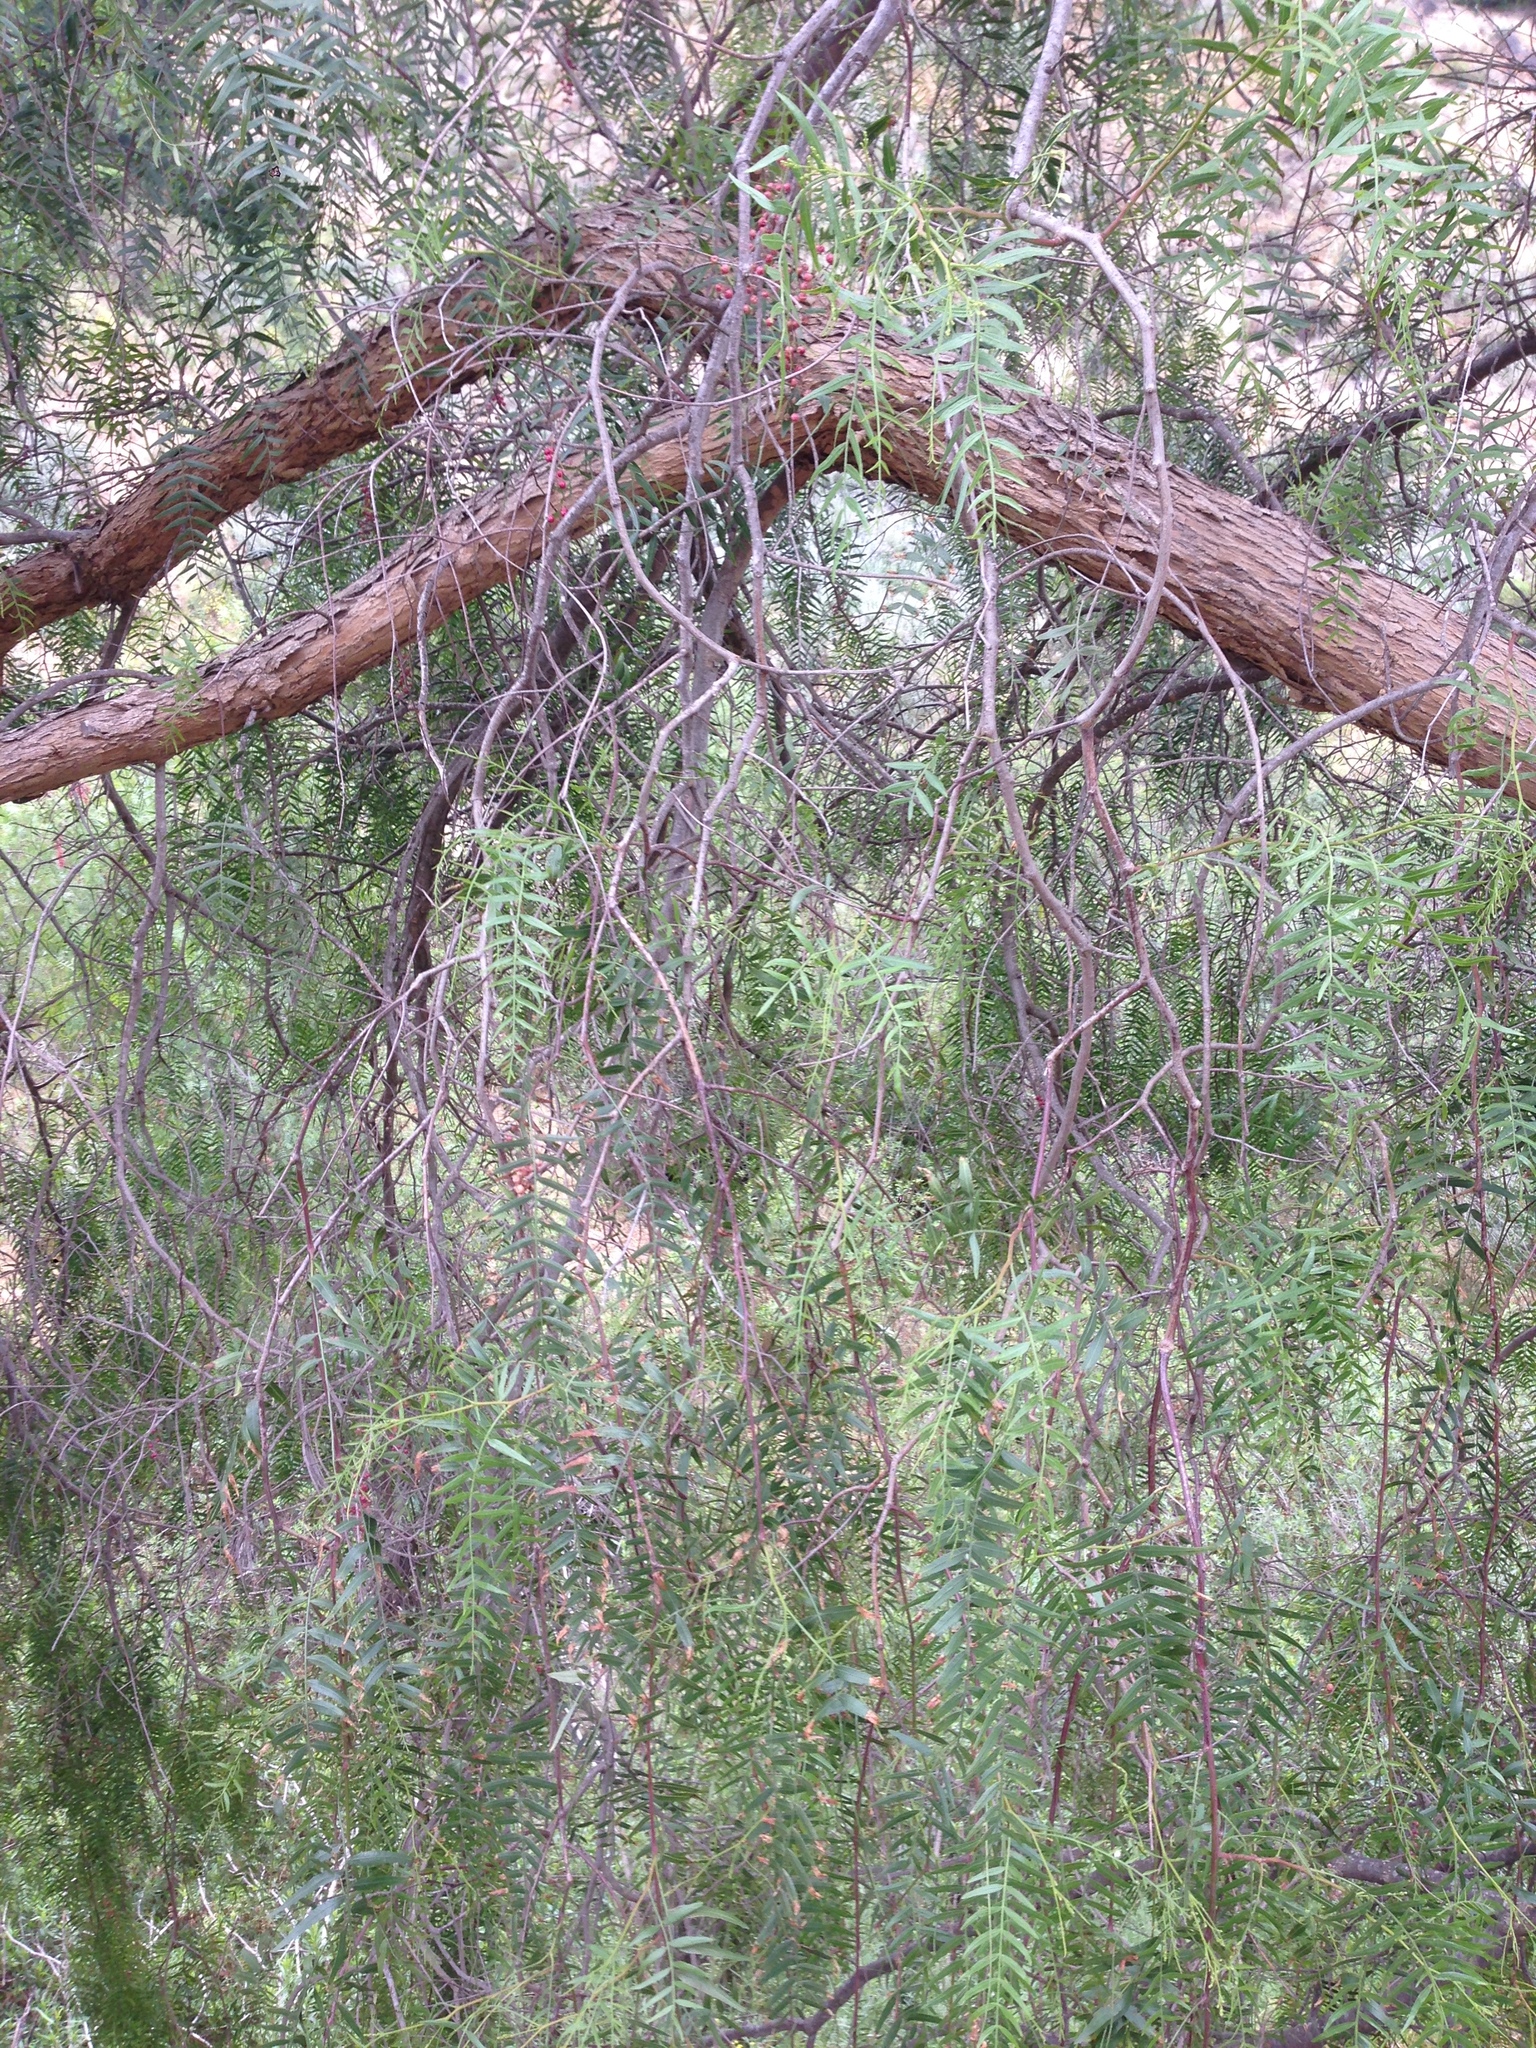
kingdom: Plantae
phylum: Tracheophyta
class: Magnoliopsida
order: Sapindales
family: Anacardiaceae
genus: Schinus
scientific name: Schinus molle
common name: Peruvian peppertree
